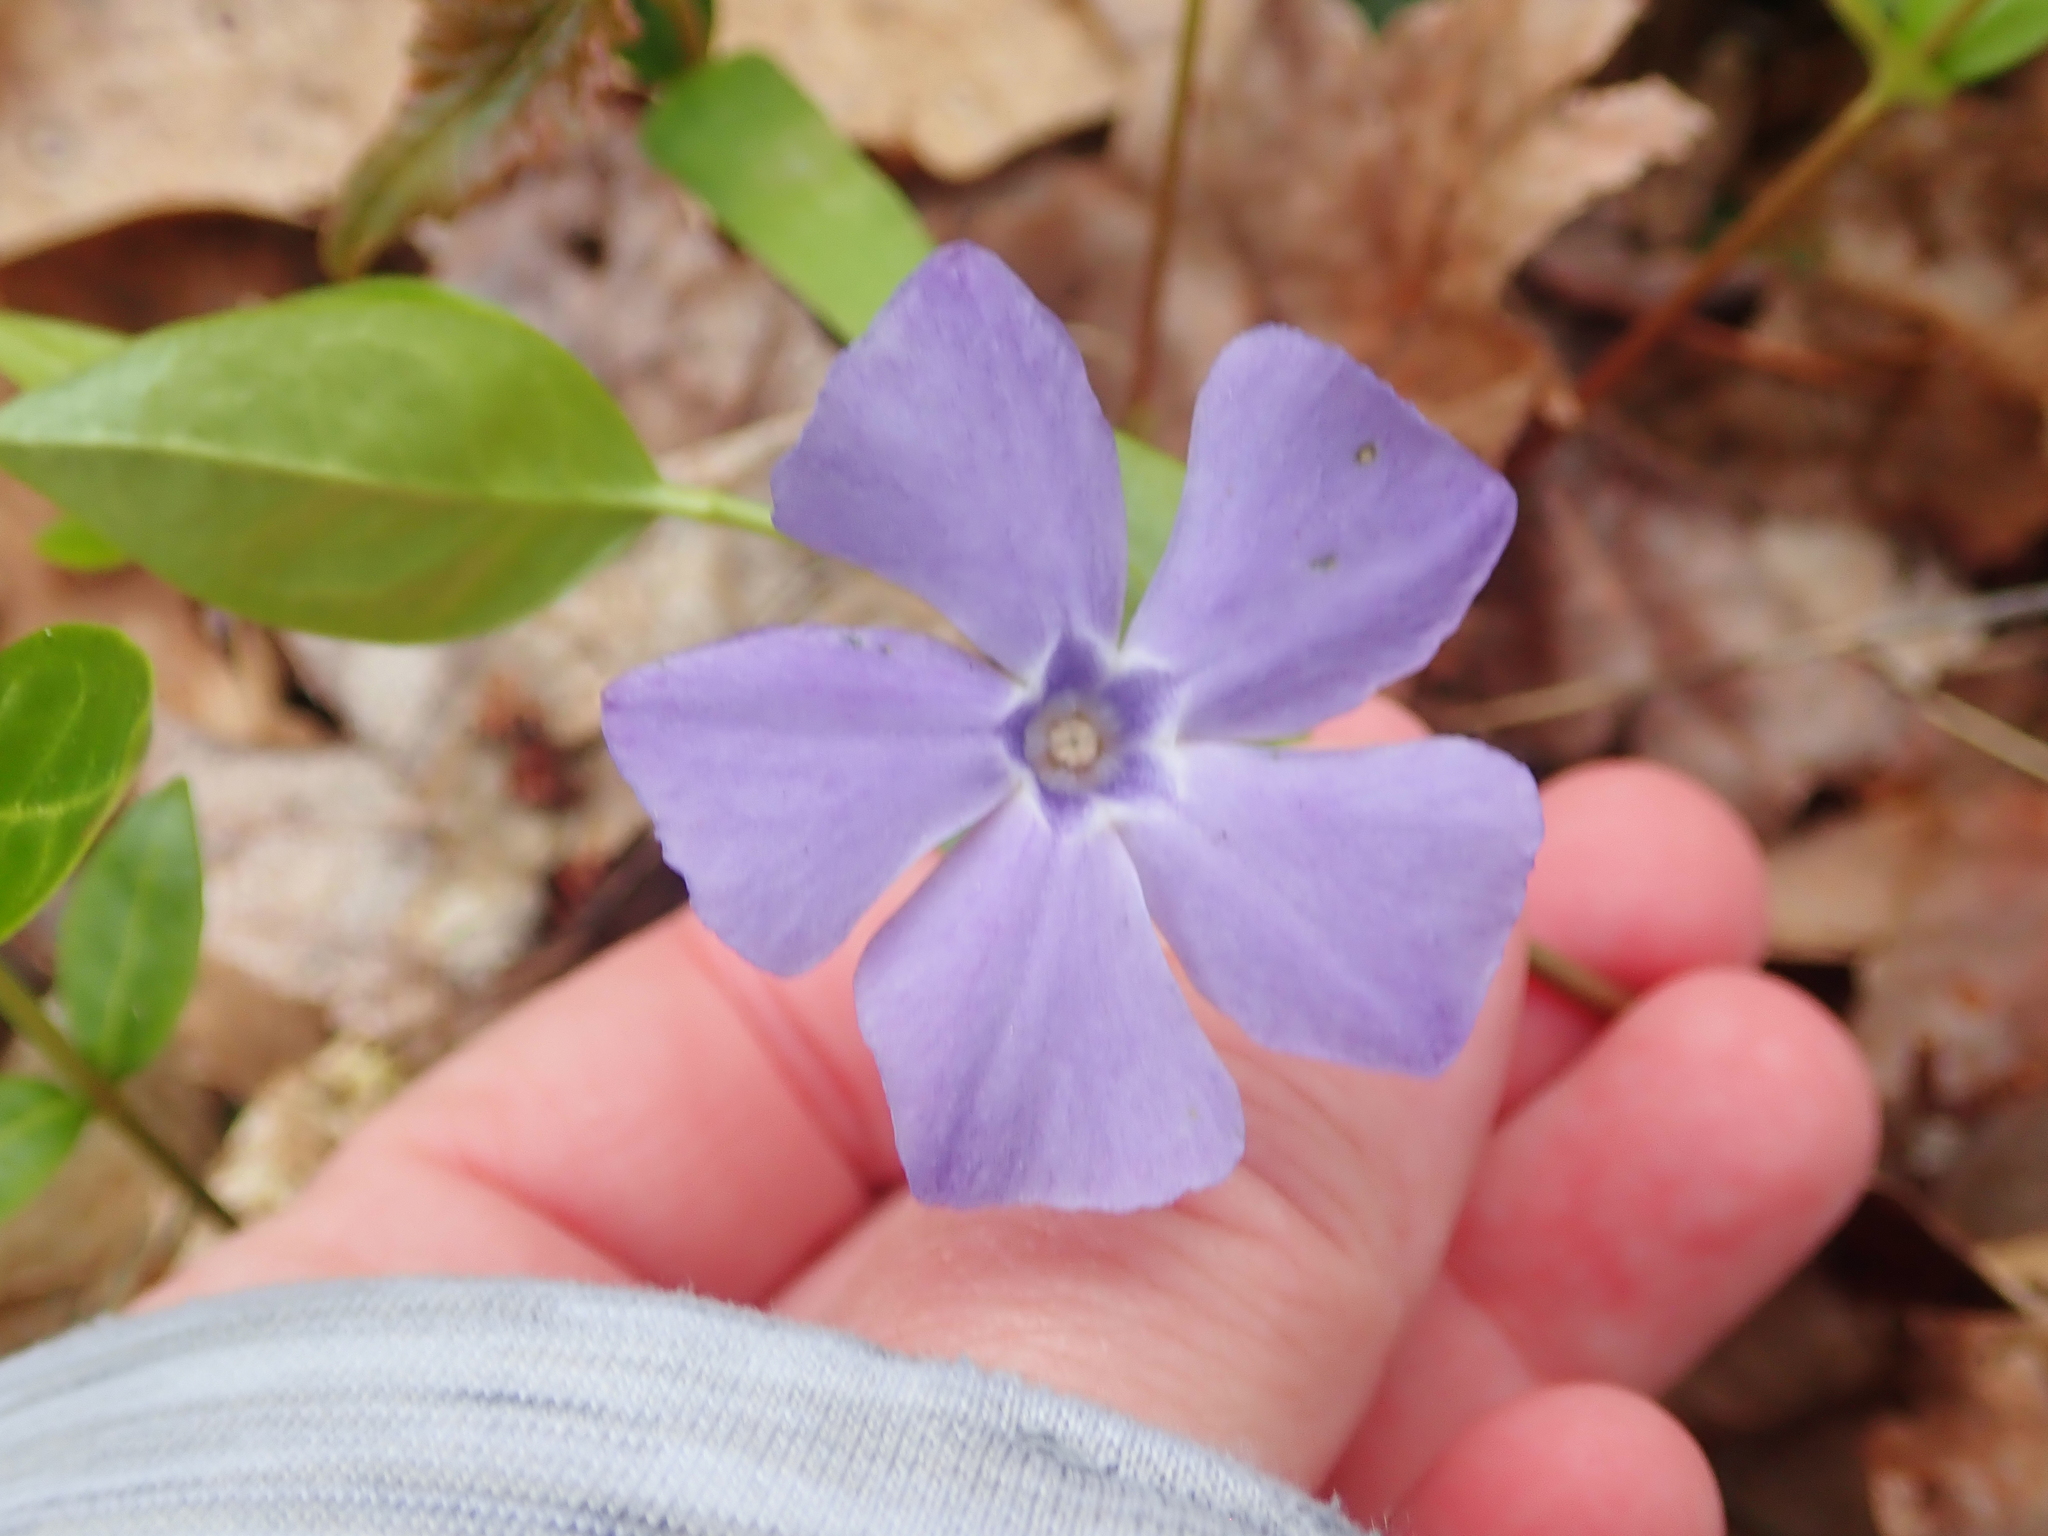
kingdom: Plantae
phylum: Tracheophyta
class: Magnoliopsida
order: Gentianales
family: Apocynaceae
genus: Vinca
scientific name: Vinca minor
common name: Lesser periwinkle
